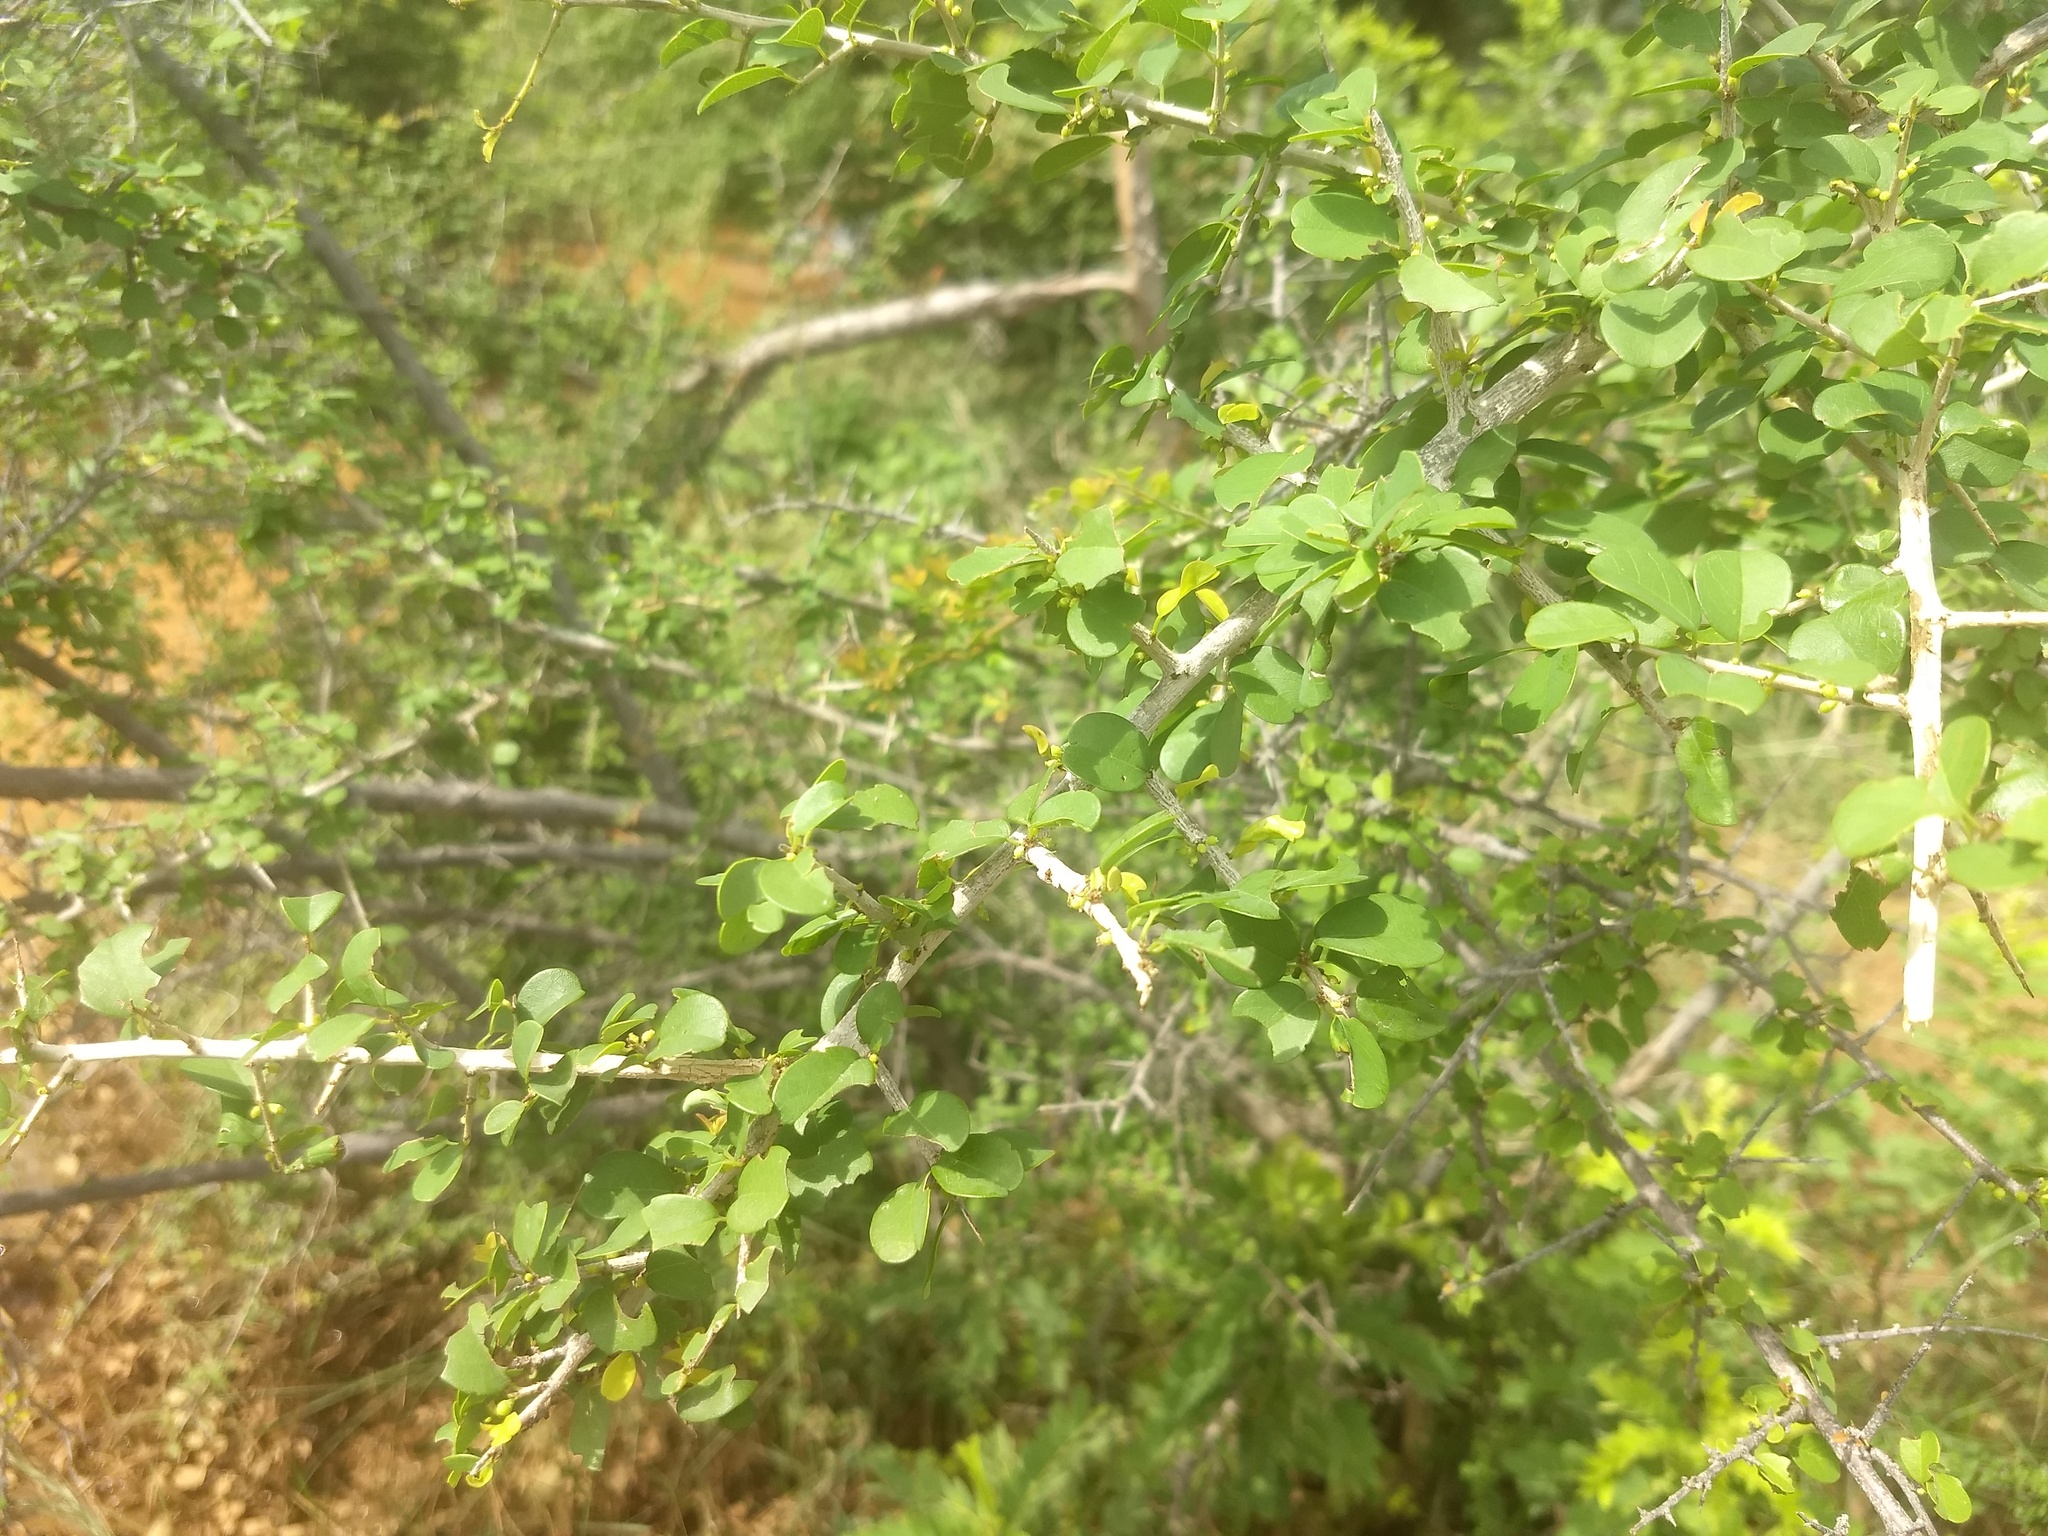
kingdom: Plantae
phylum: Tracheophyta
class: Magnoliopsida
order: Malpighiales
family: Phyllanthaceae
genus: Flueggea
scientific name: Flueggea leucopyrus
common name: Bushweed
